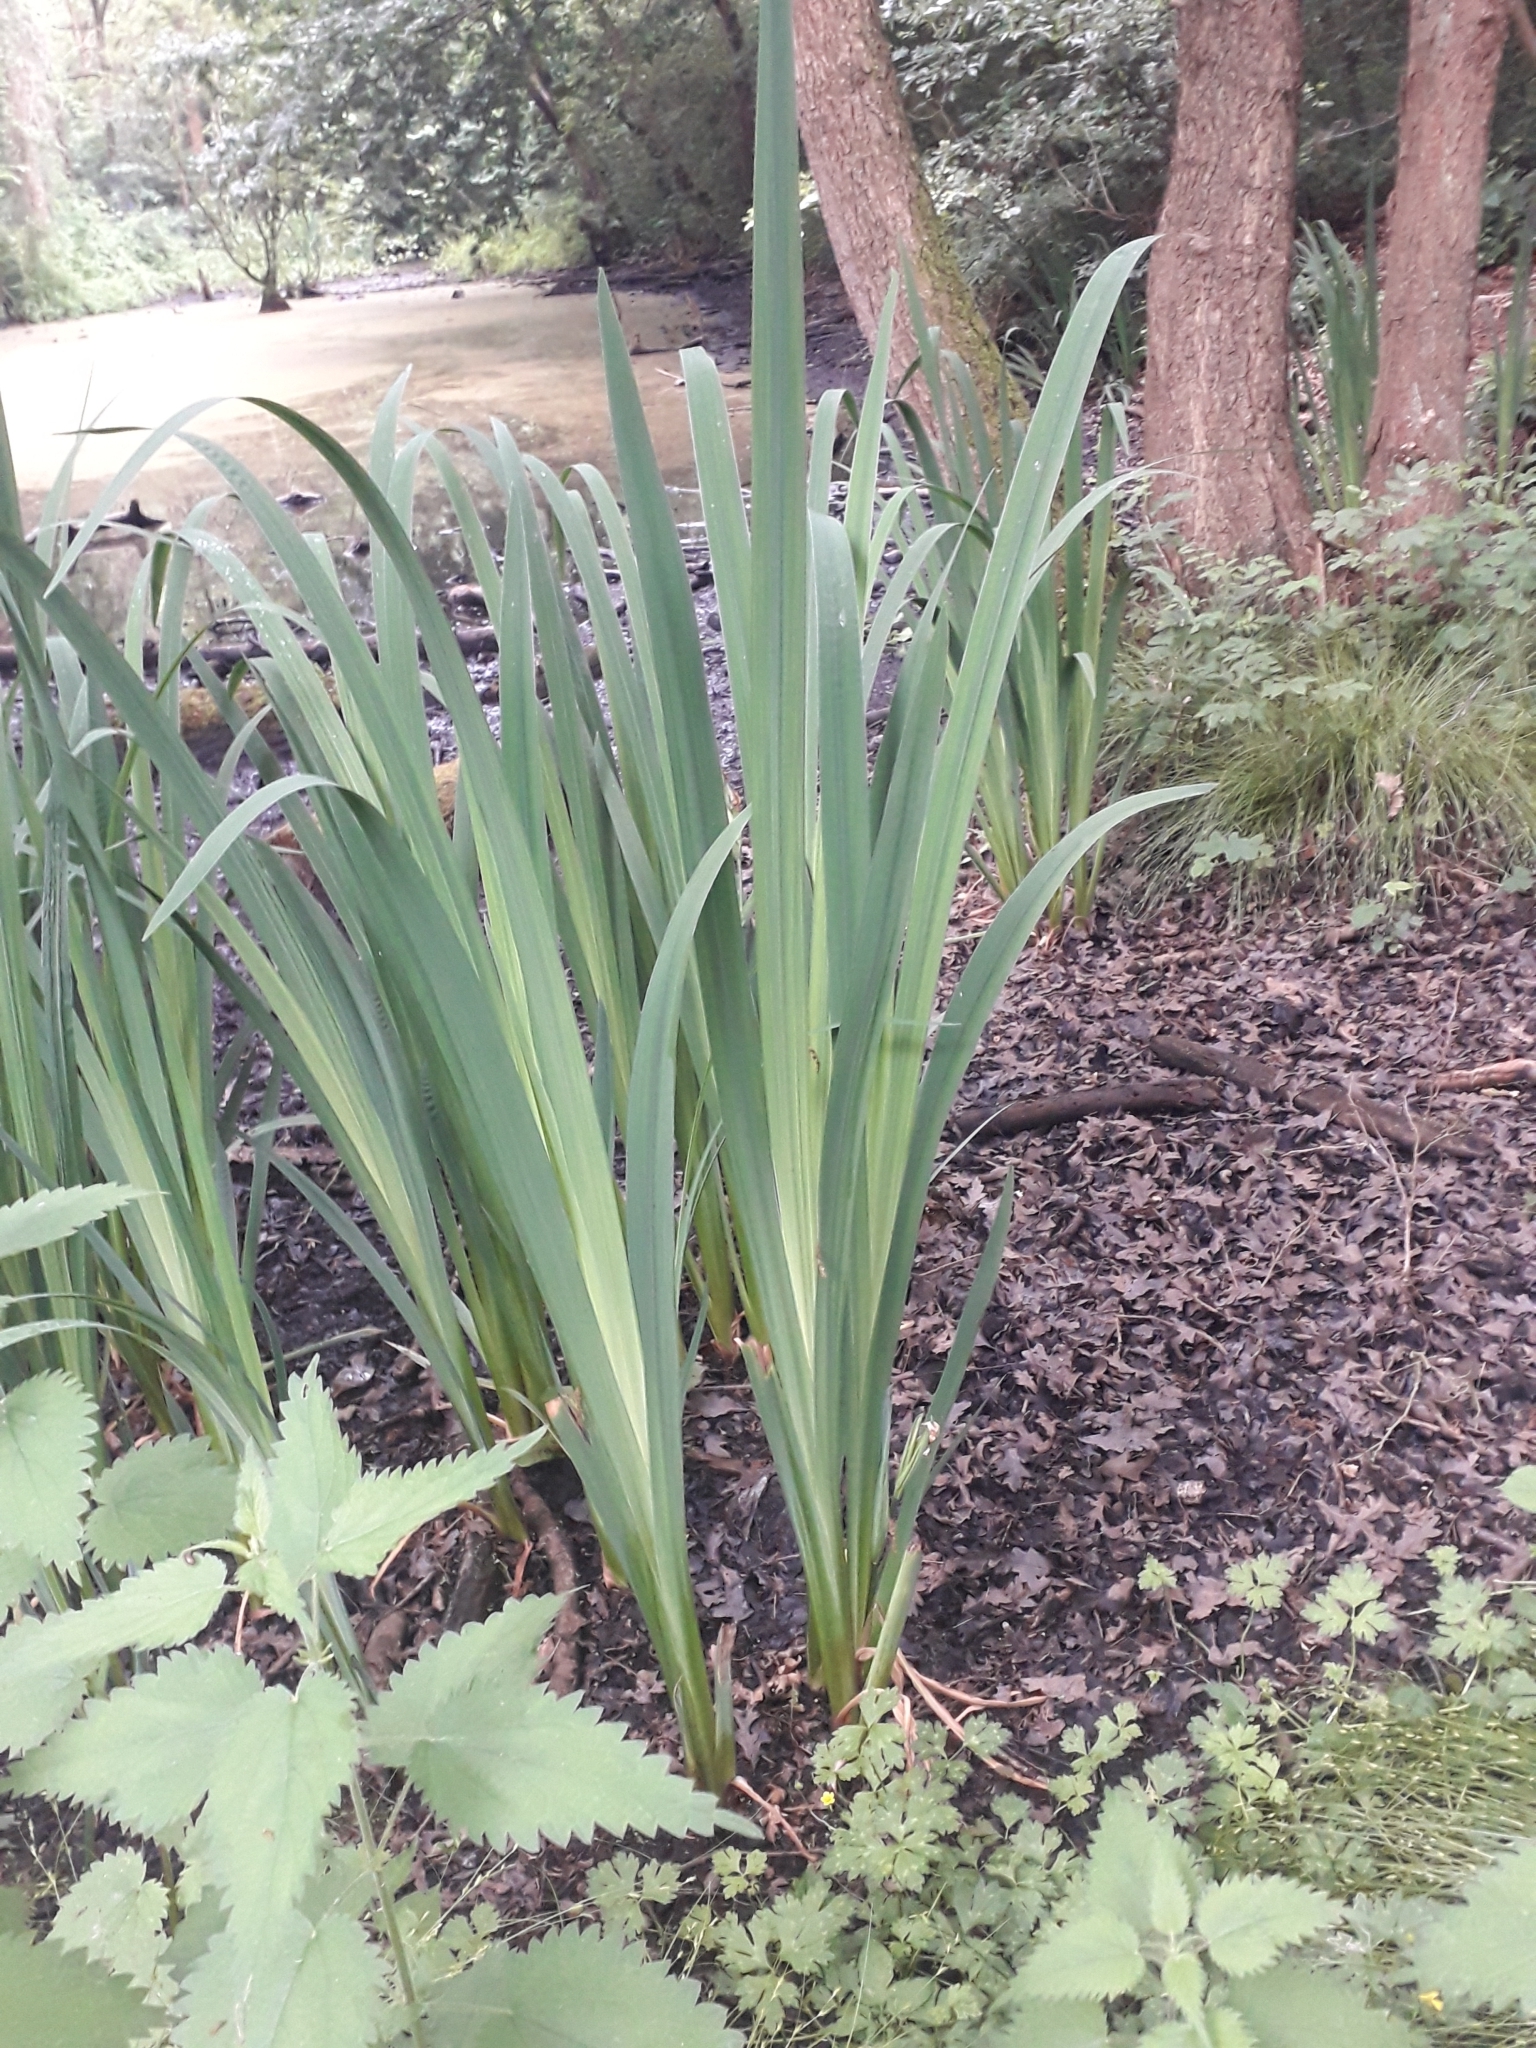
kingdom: Plantae
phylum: Tracheophyta
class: Liliopsida
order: Asparagales
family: Iridaceae
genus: Iris
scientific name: Iris pseudacorus
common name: Yellow flag
